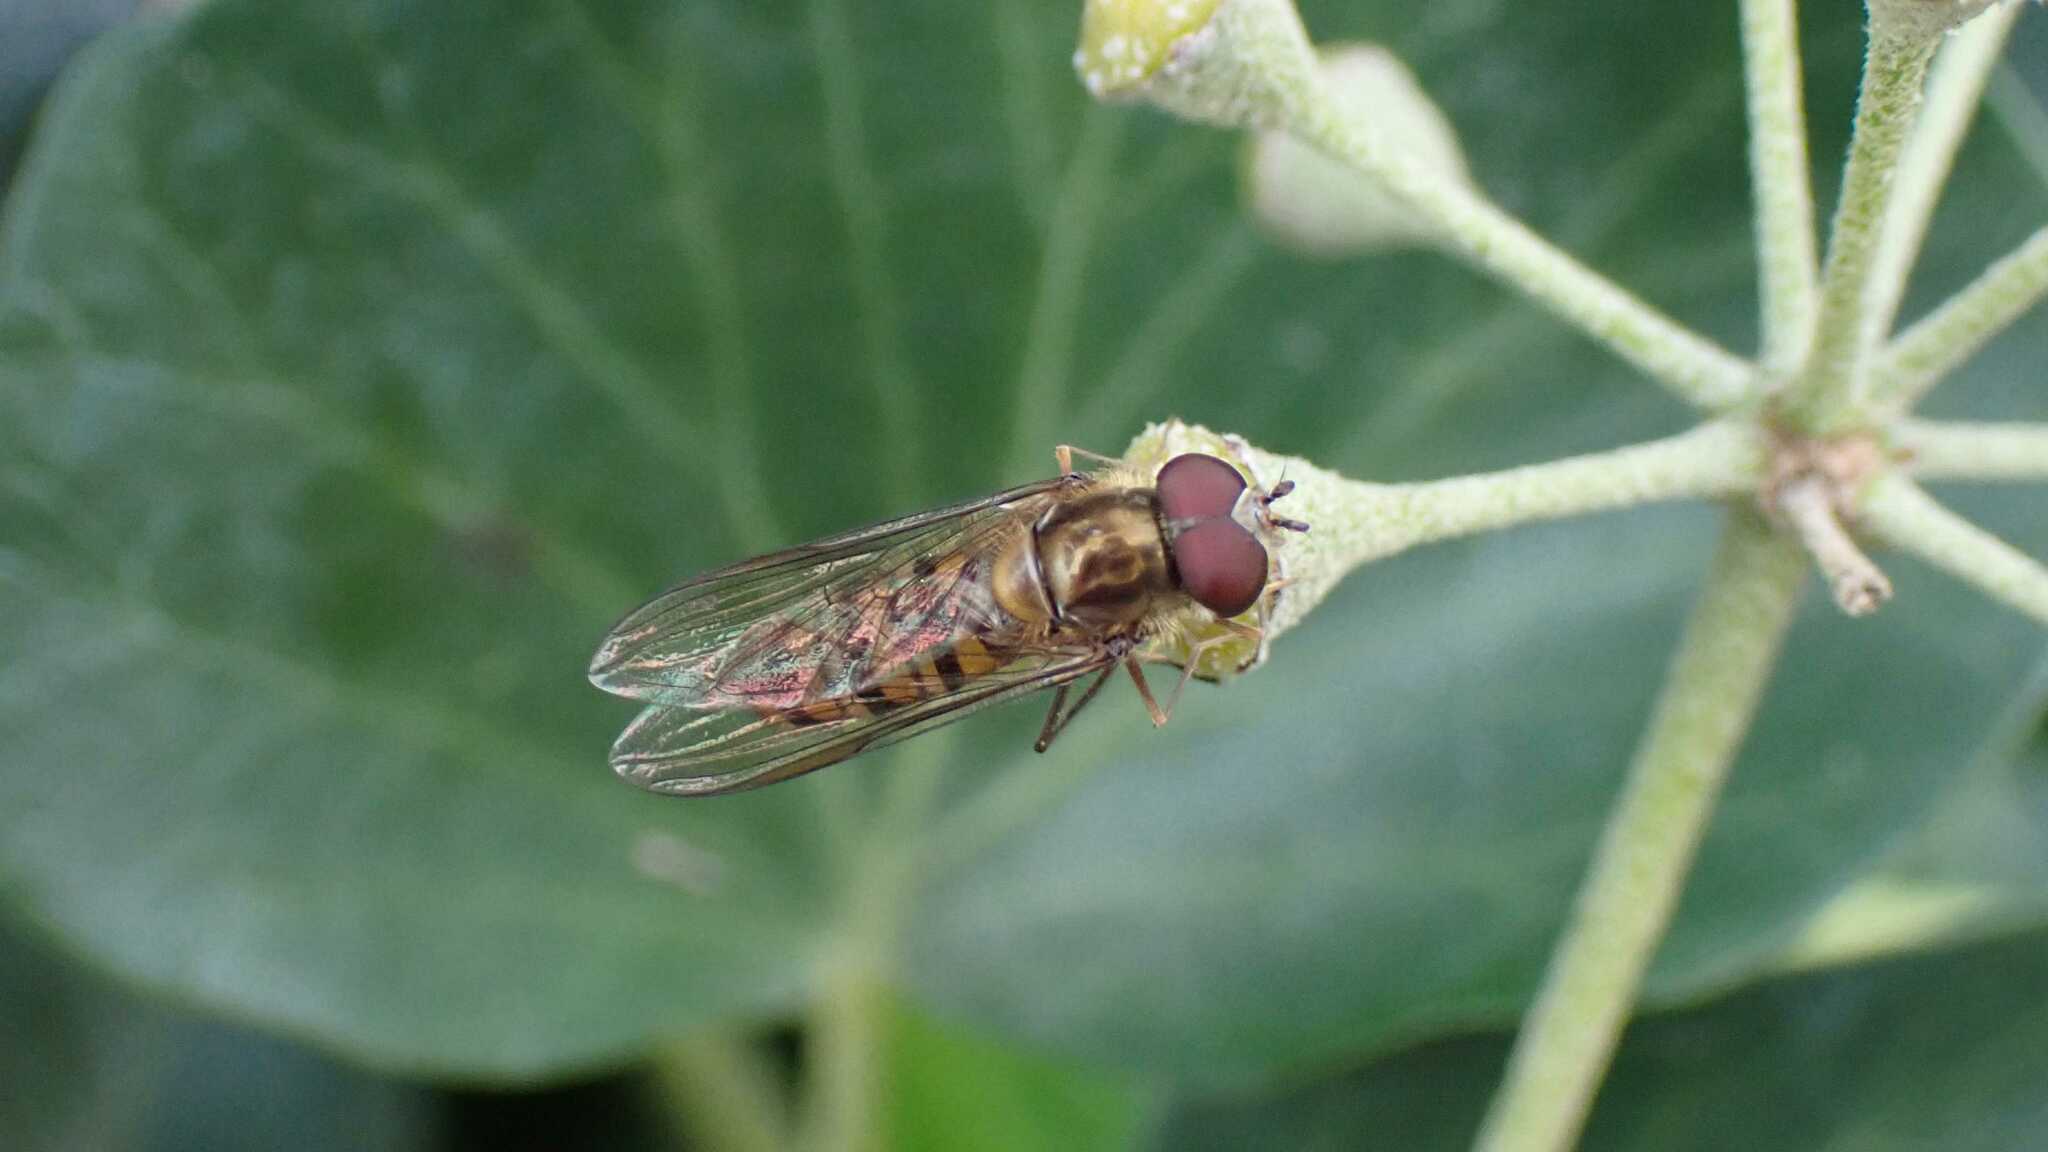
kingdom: Animalia
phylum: Arthropoda
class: Insecta
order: Diptera
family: Syrphidae
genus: Episyrphus
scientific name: Episyrphus balteatus
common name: Marmalade hoverfly
